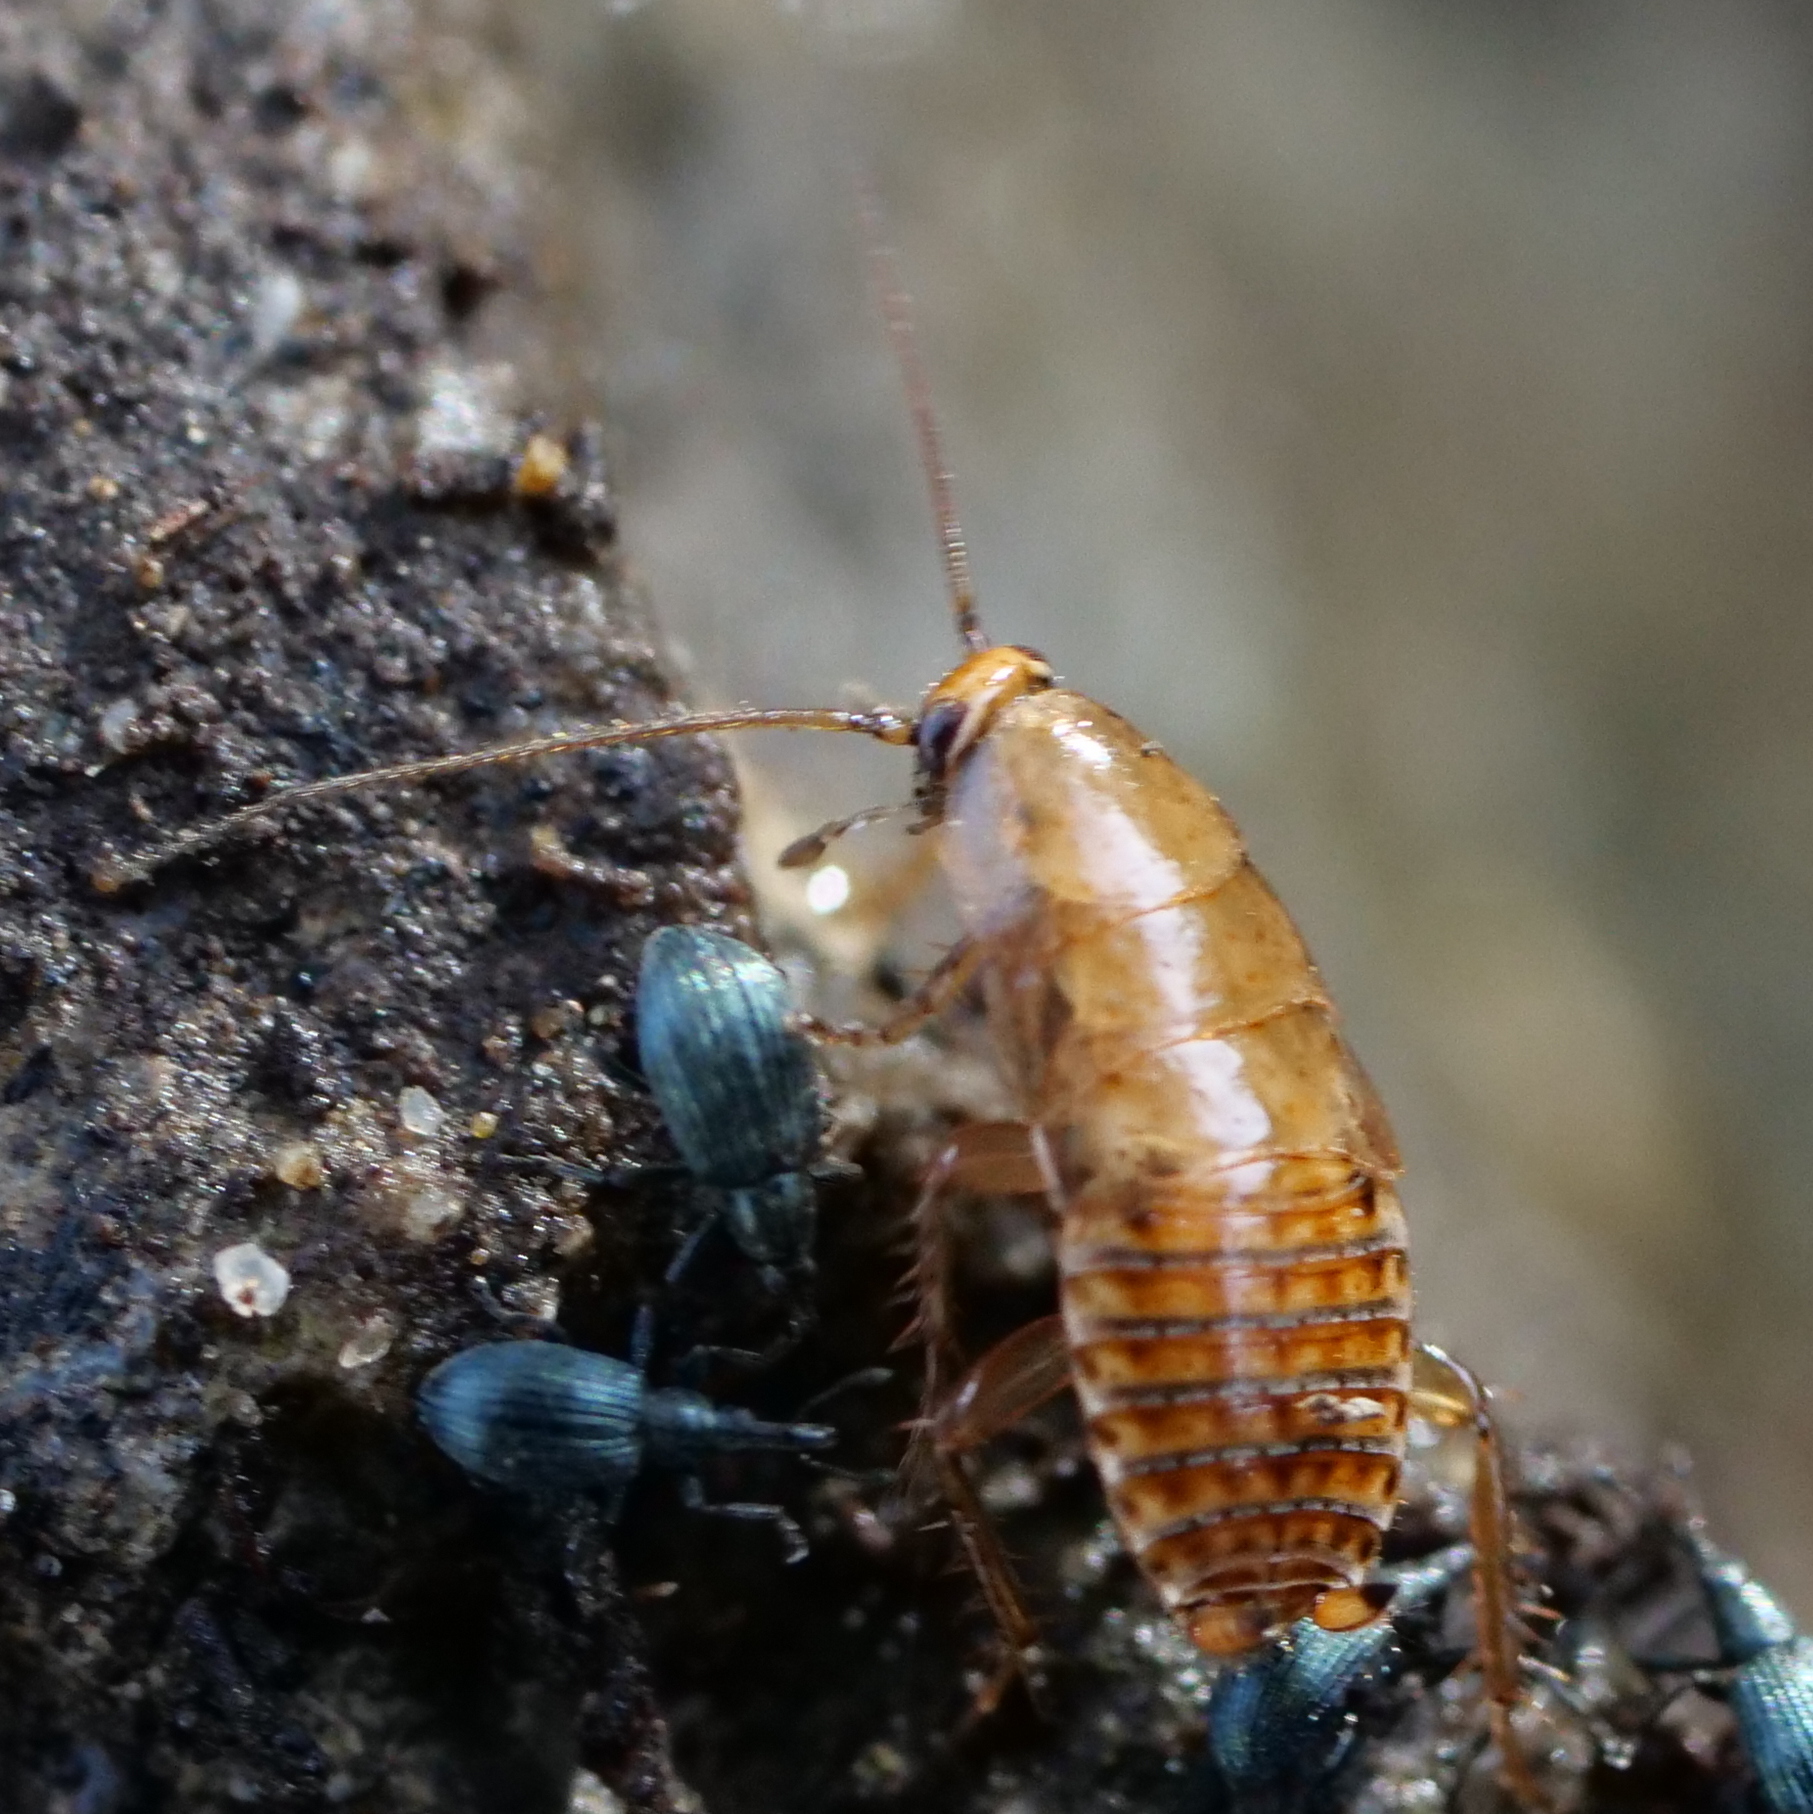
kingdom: Animalia
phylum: Arthropoda
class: Insecta
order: Blattodea
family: Ectobiidae
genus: Ectobius
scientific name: Ectobius lapponicus
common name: Dusky cockroach
